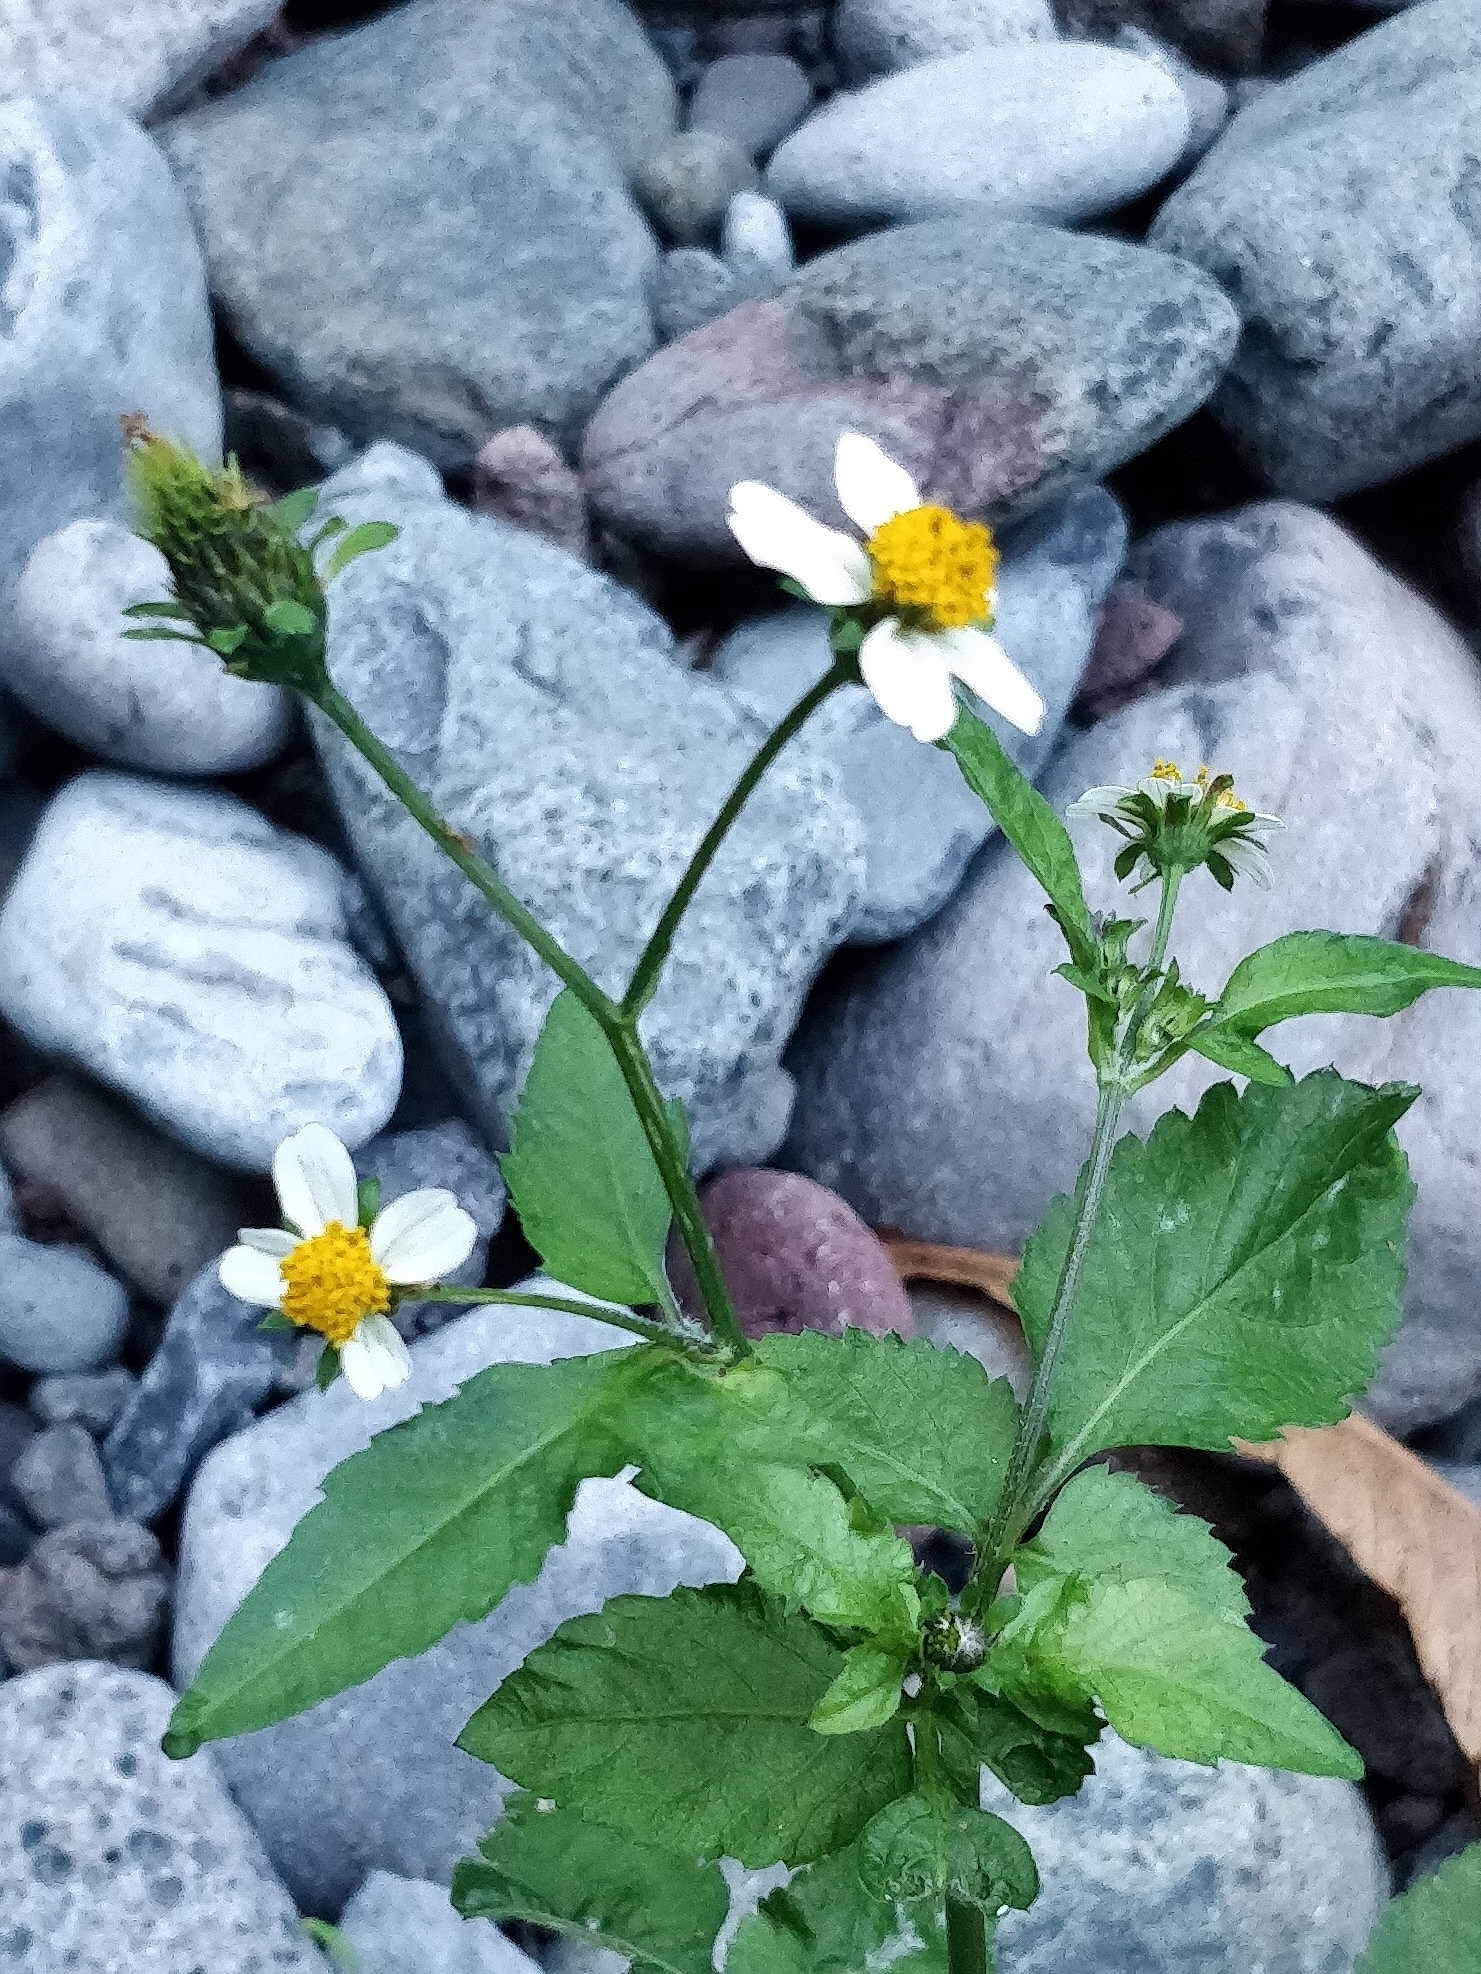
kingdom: Plantae
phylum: Tracheophyta
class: Magnoliopsida
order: Asterales
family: Asteraceae
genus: Bidens
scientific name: Bidens pilosa
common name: Black-jack
